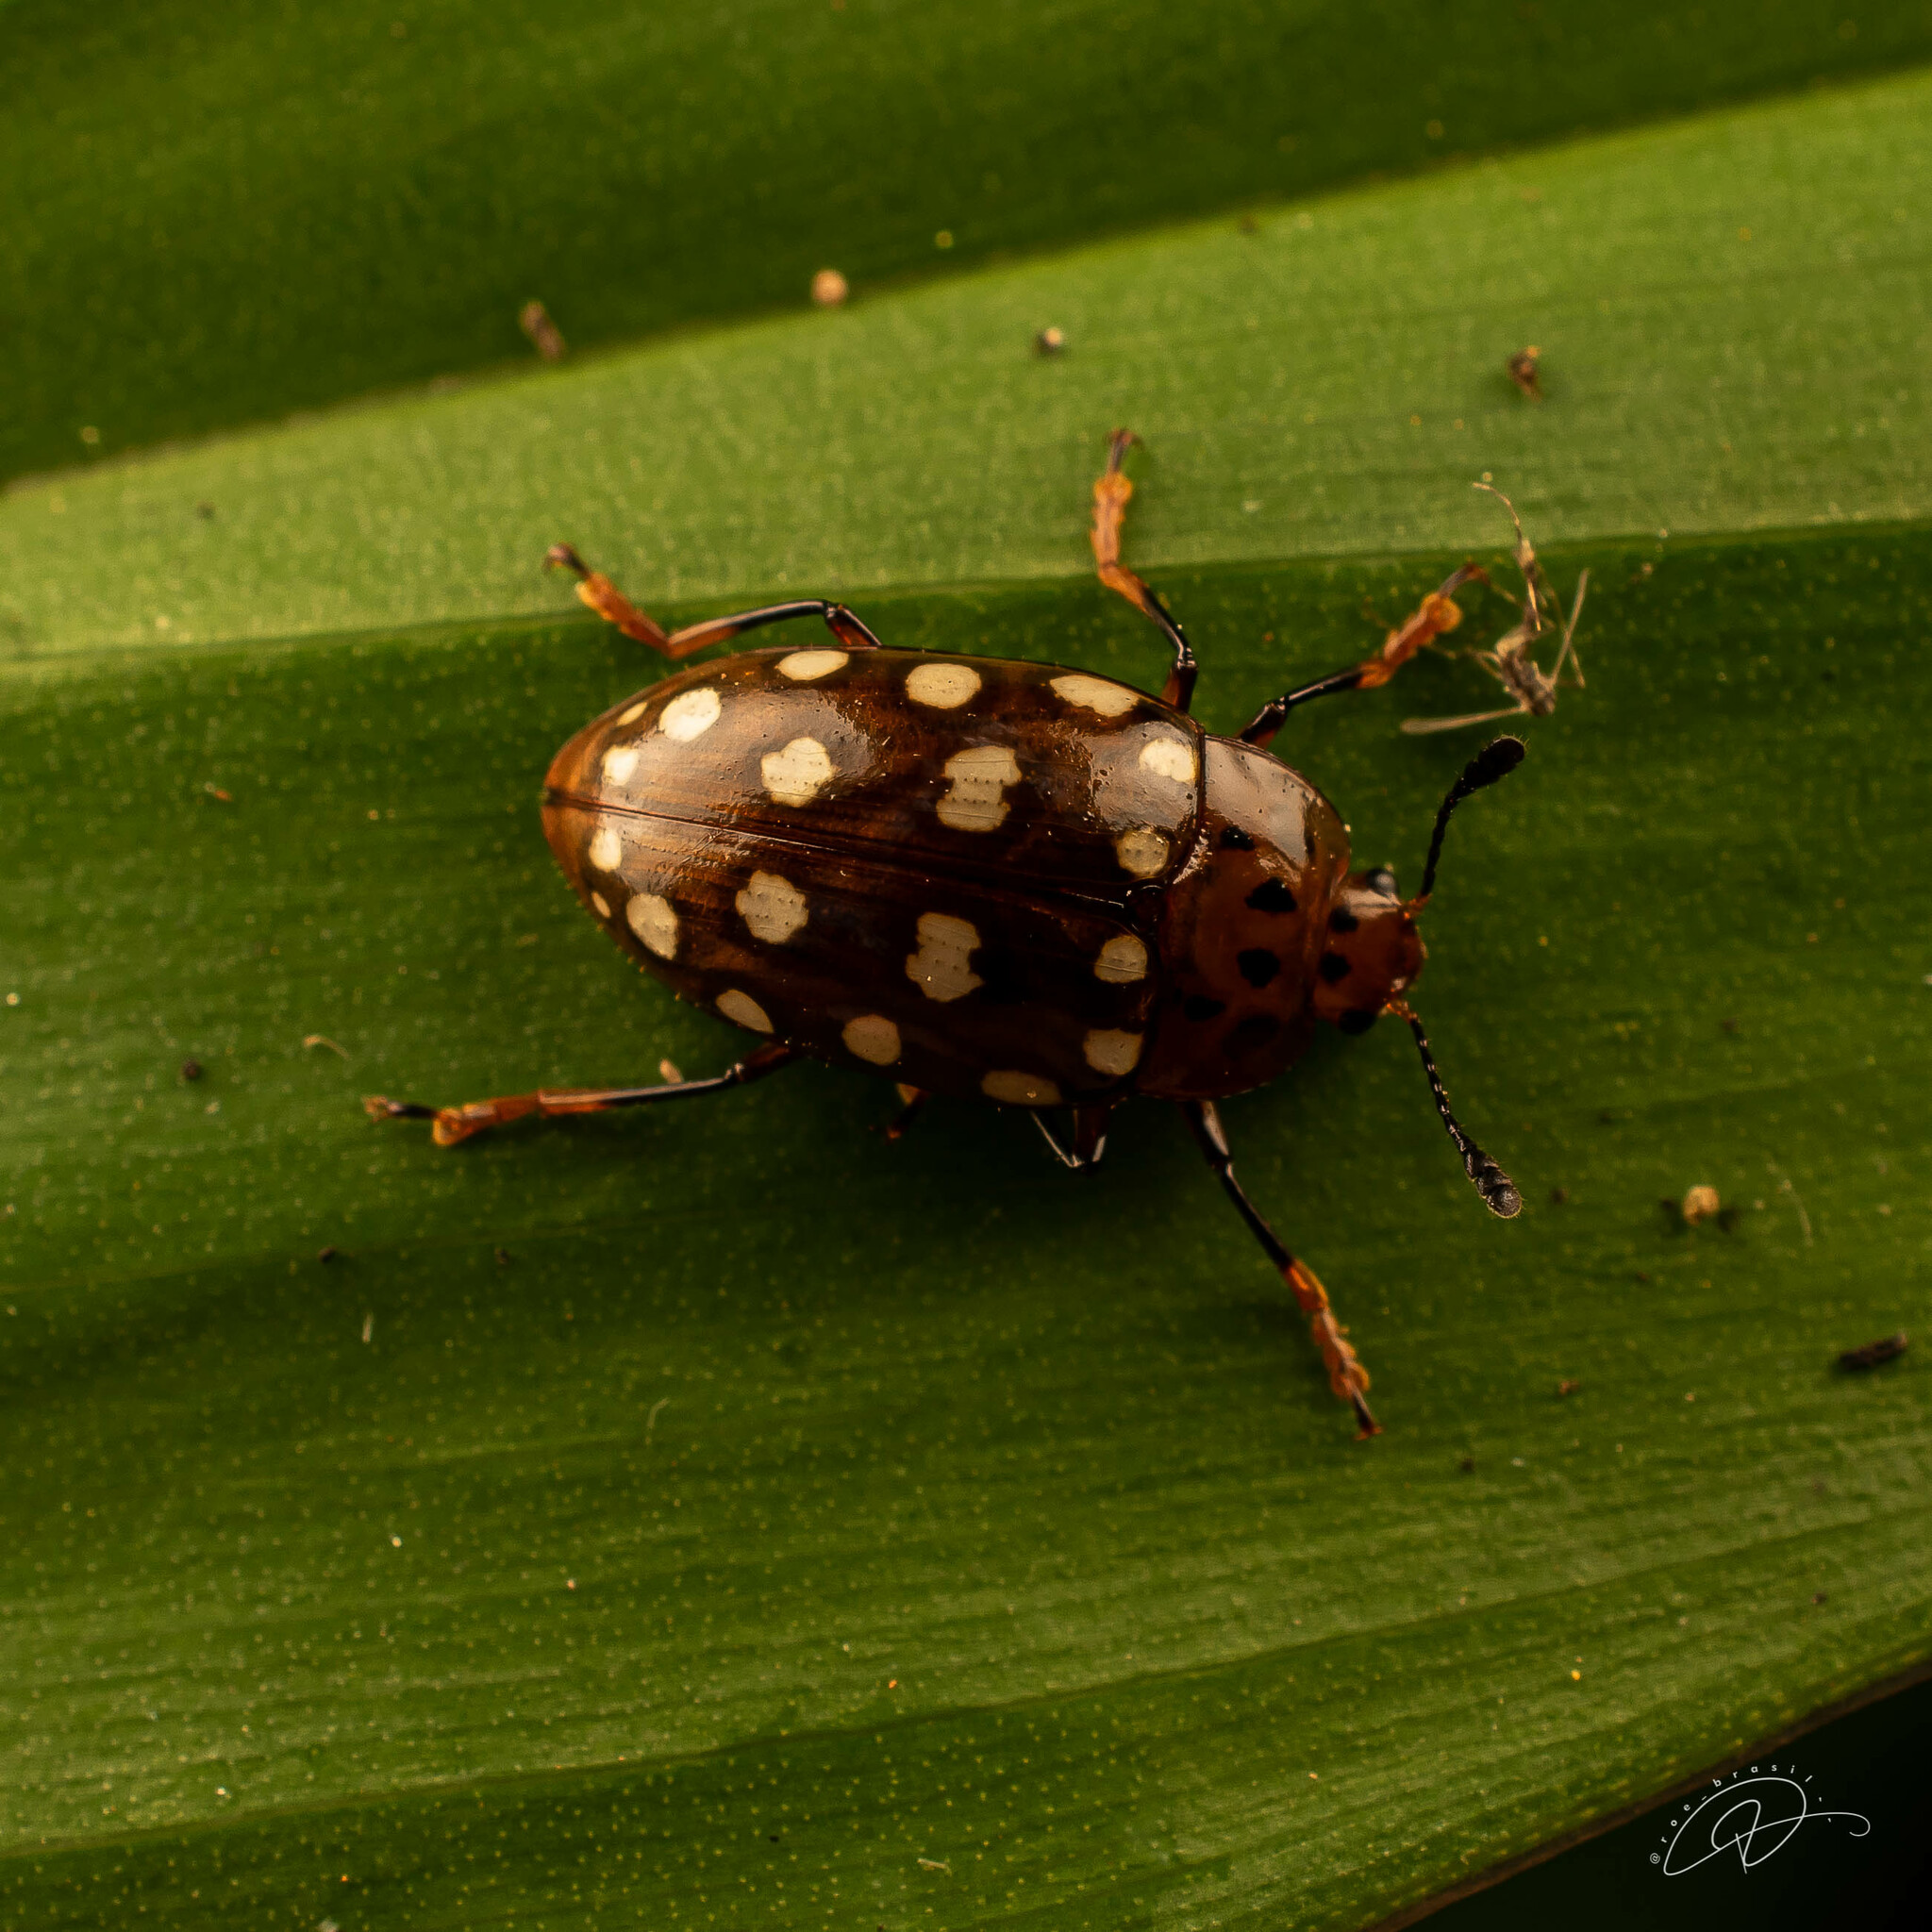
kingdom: Animalia
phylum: Arthropoda
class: Insecta
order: Coleoptera
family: Erotylidae
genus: Iphiclus
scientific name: Iphiclus
